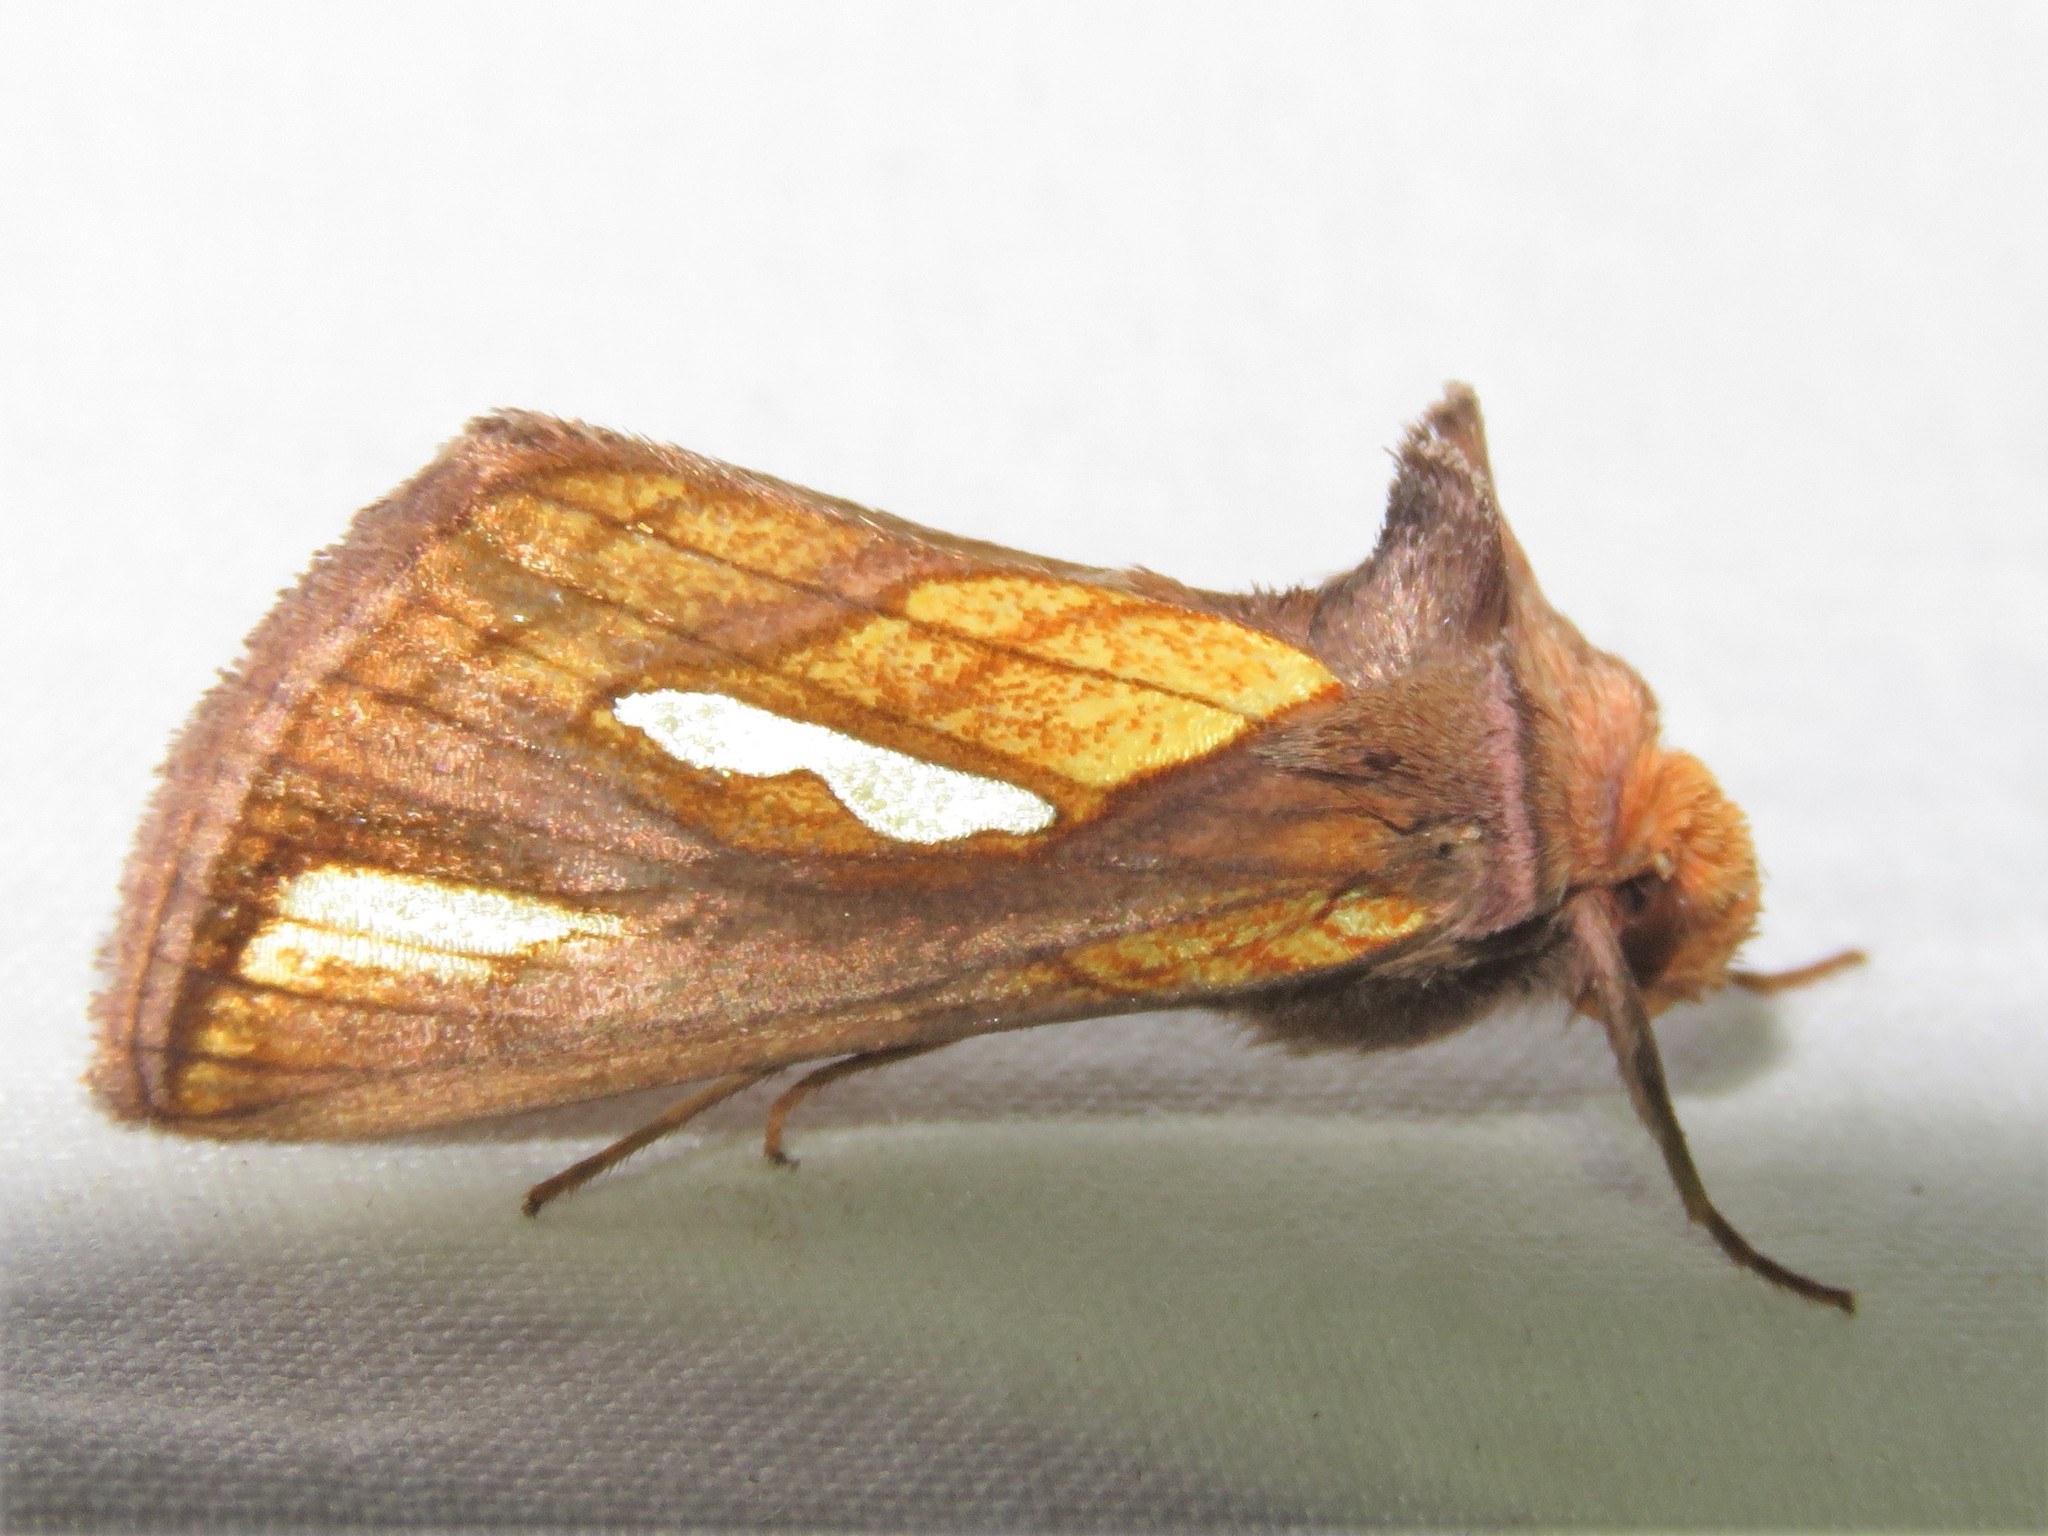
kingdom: Animalia
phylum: Arthropoda
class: Insecta
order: Lepidoptera
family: Noctuidae
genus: Plusia
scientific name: Plusia contexta
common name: Connected looper moth
